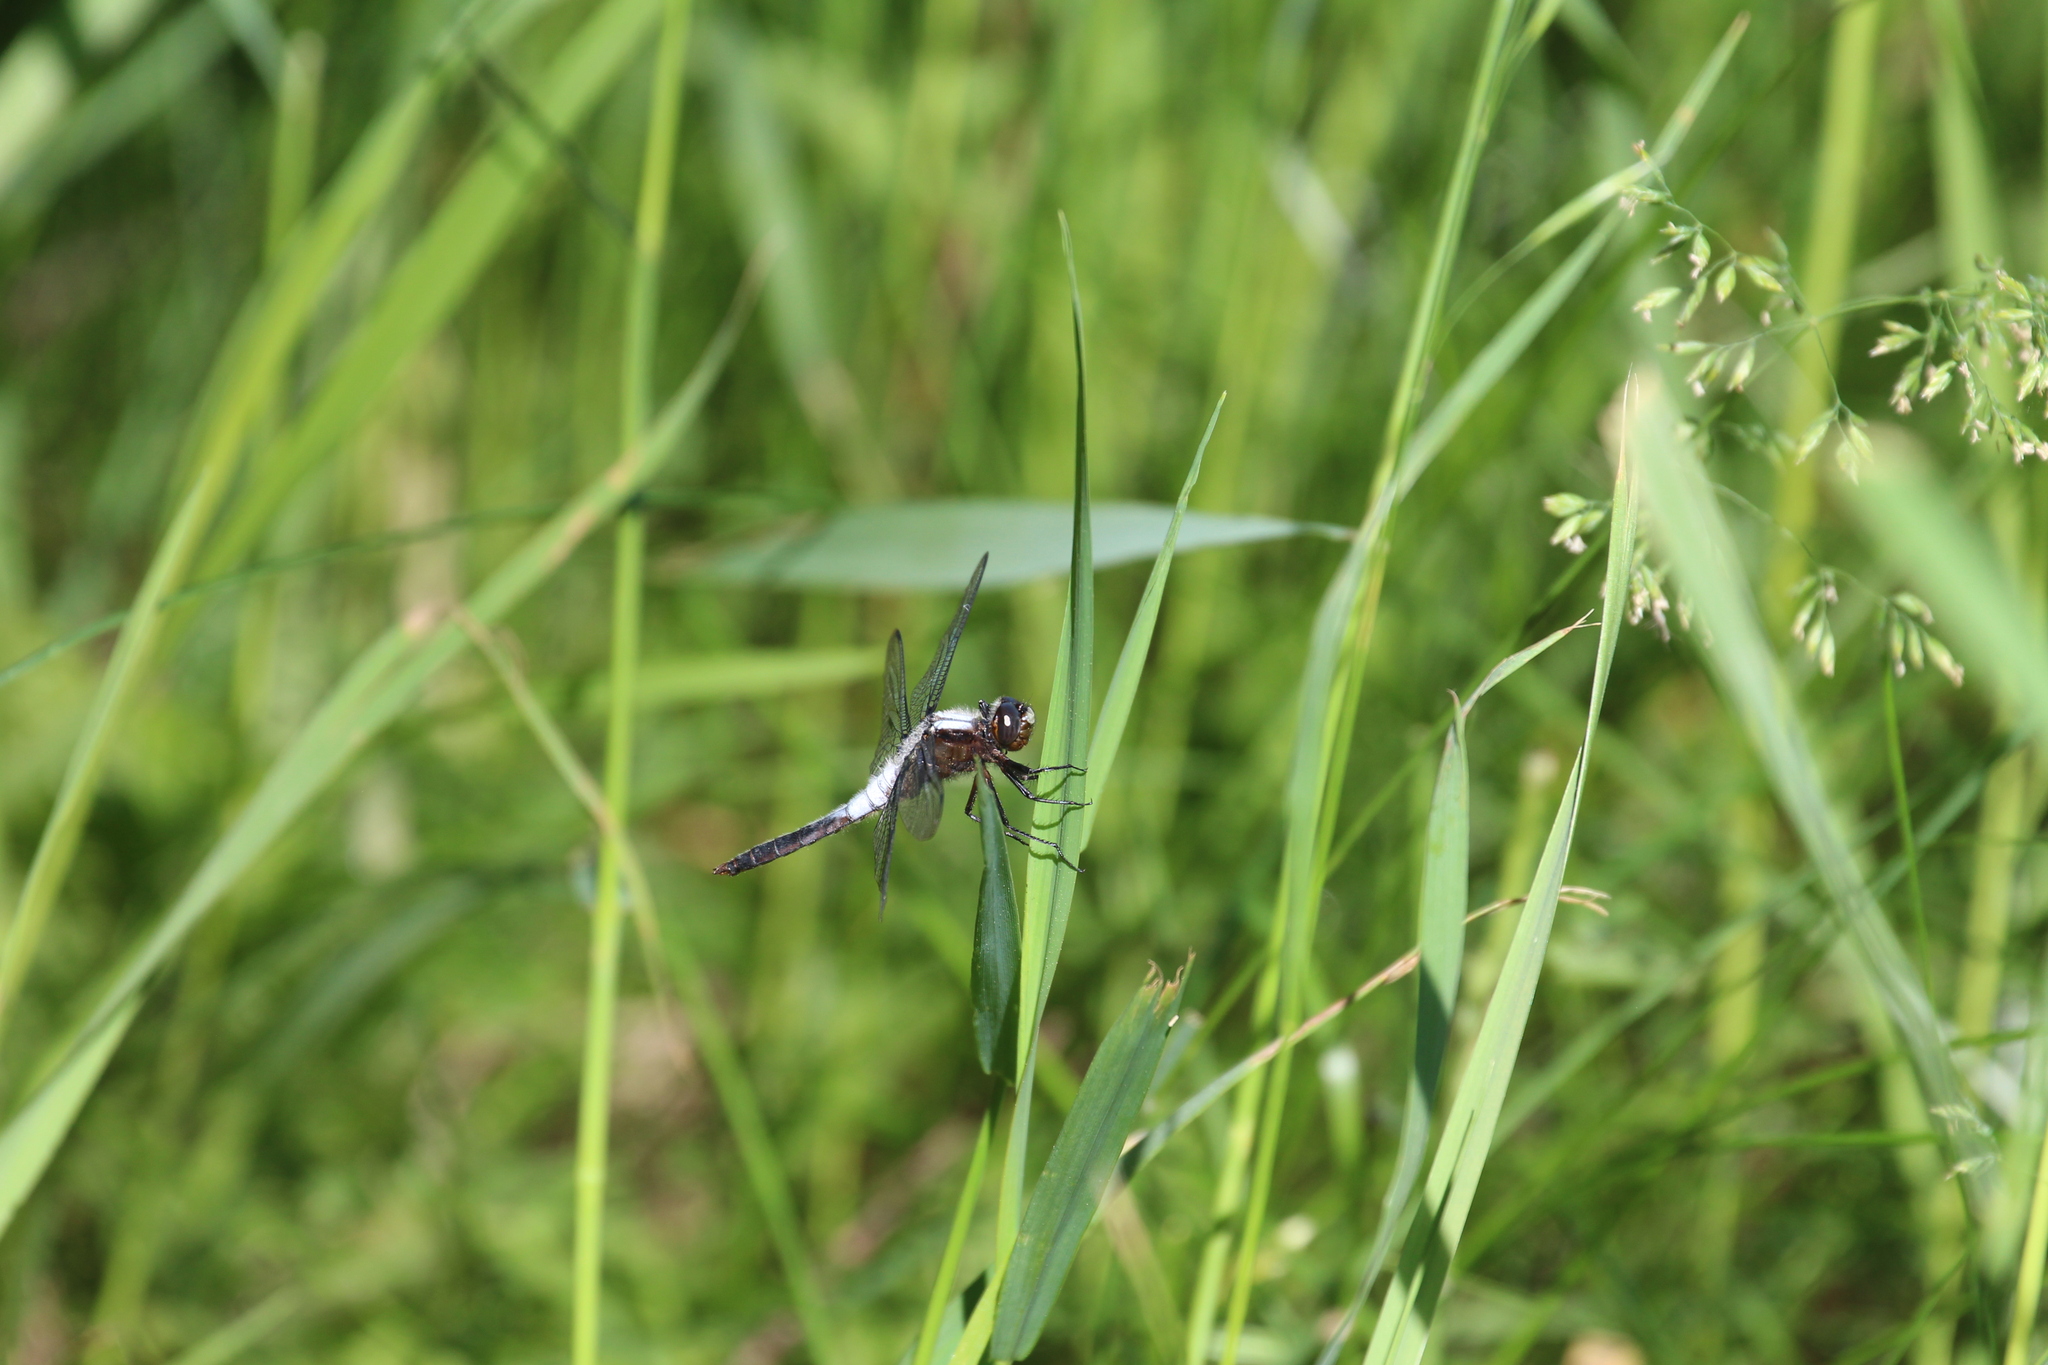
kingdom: Animalia
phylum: Arthropoda
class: Insecta
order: Odonata
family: Libellulidae
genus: Ladona
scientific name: Ladona julia
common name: Chalk-fronted corporal
